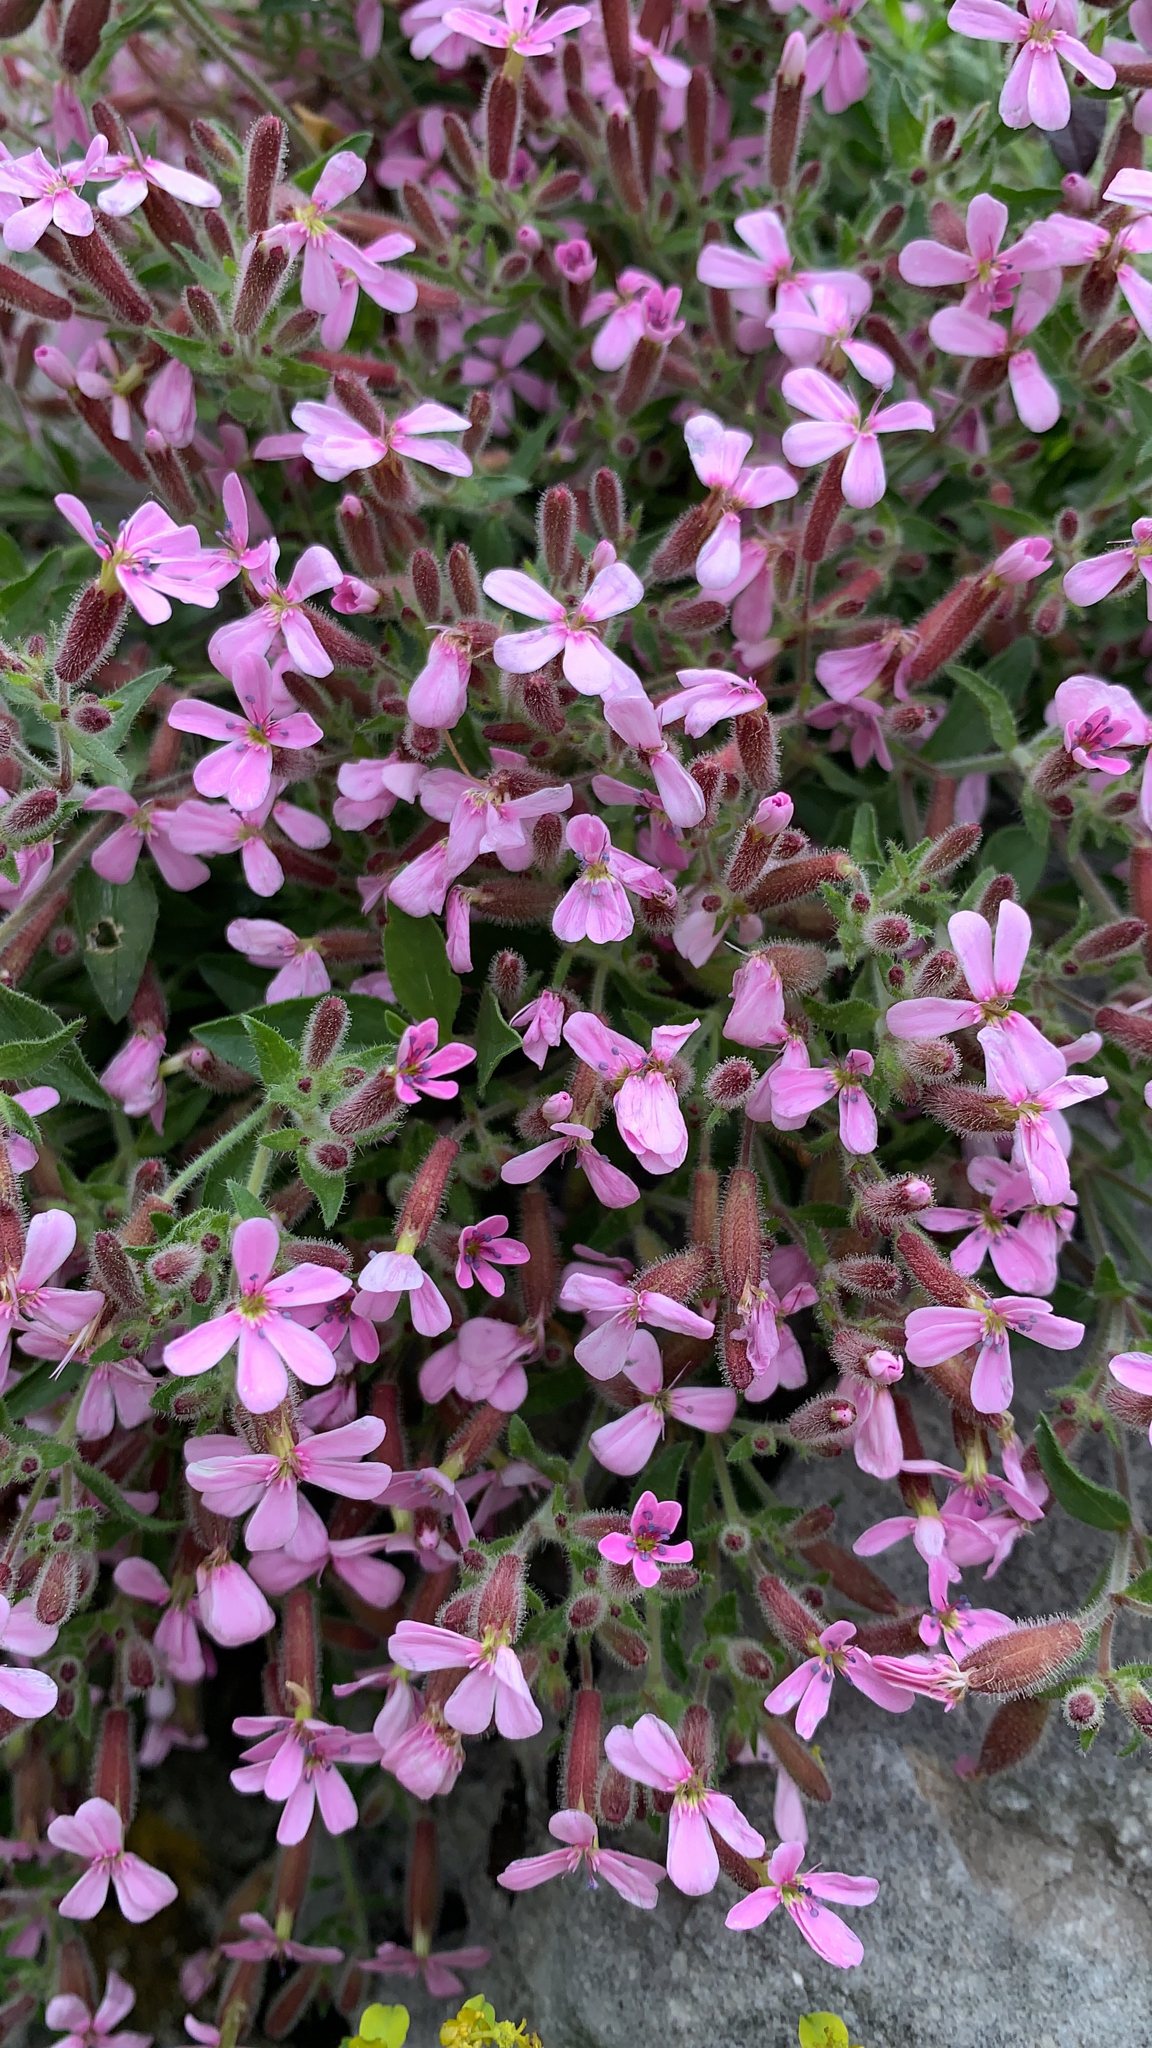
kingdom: Plantae
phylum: Tracheophyta
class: Magnoliopsida
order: Caryophyllales
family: Caryophyllaceae
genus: Saponaria
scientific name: Saponaria ocymoides
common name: Rock soapwort
